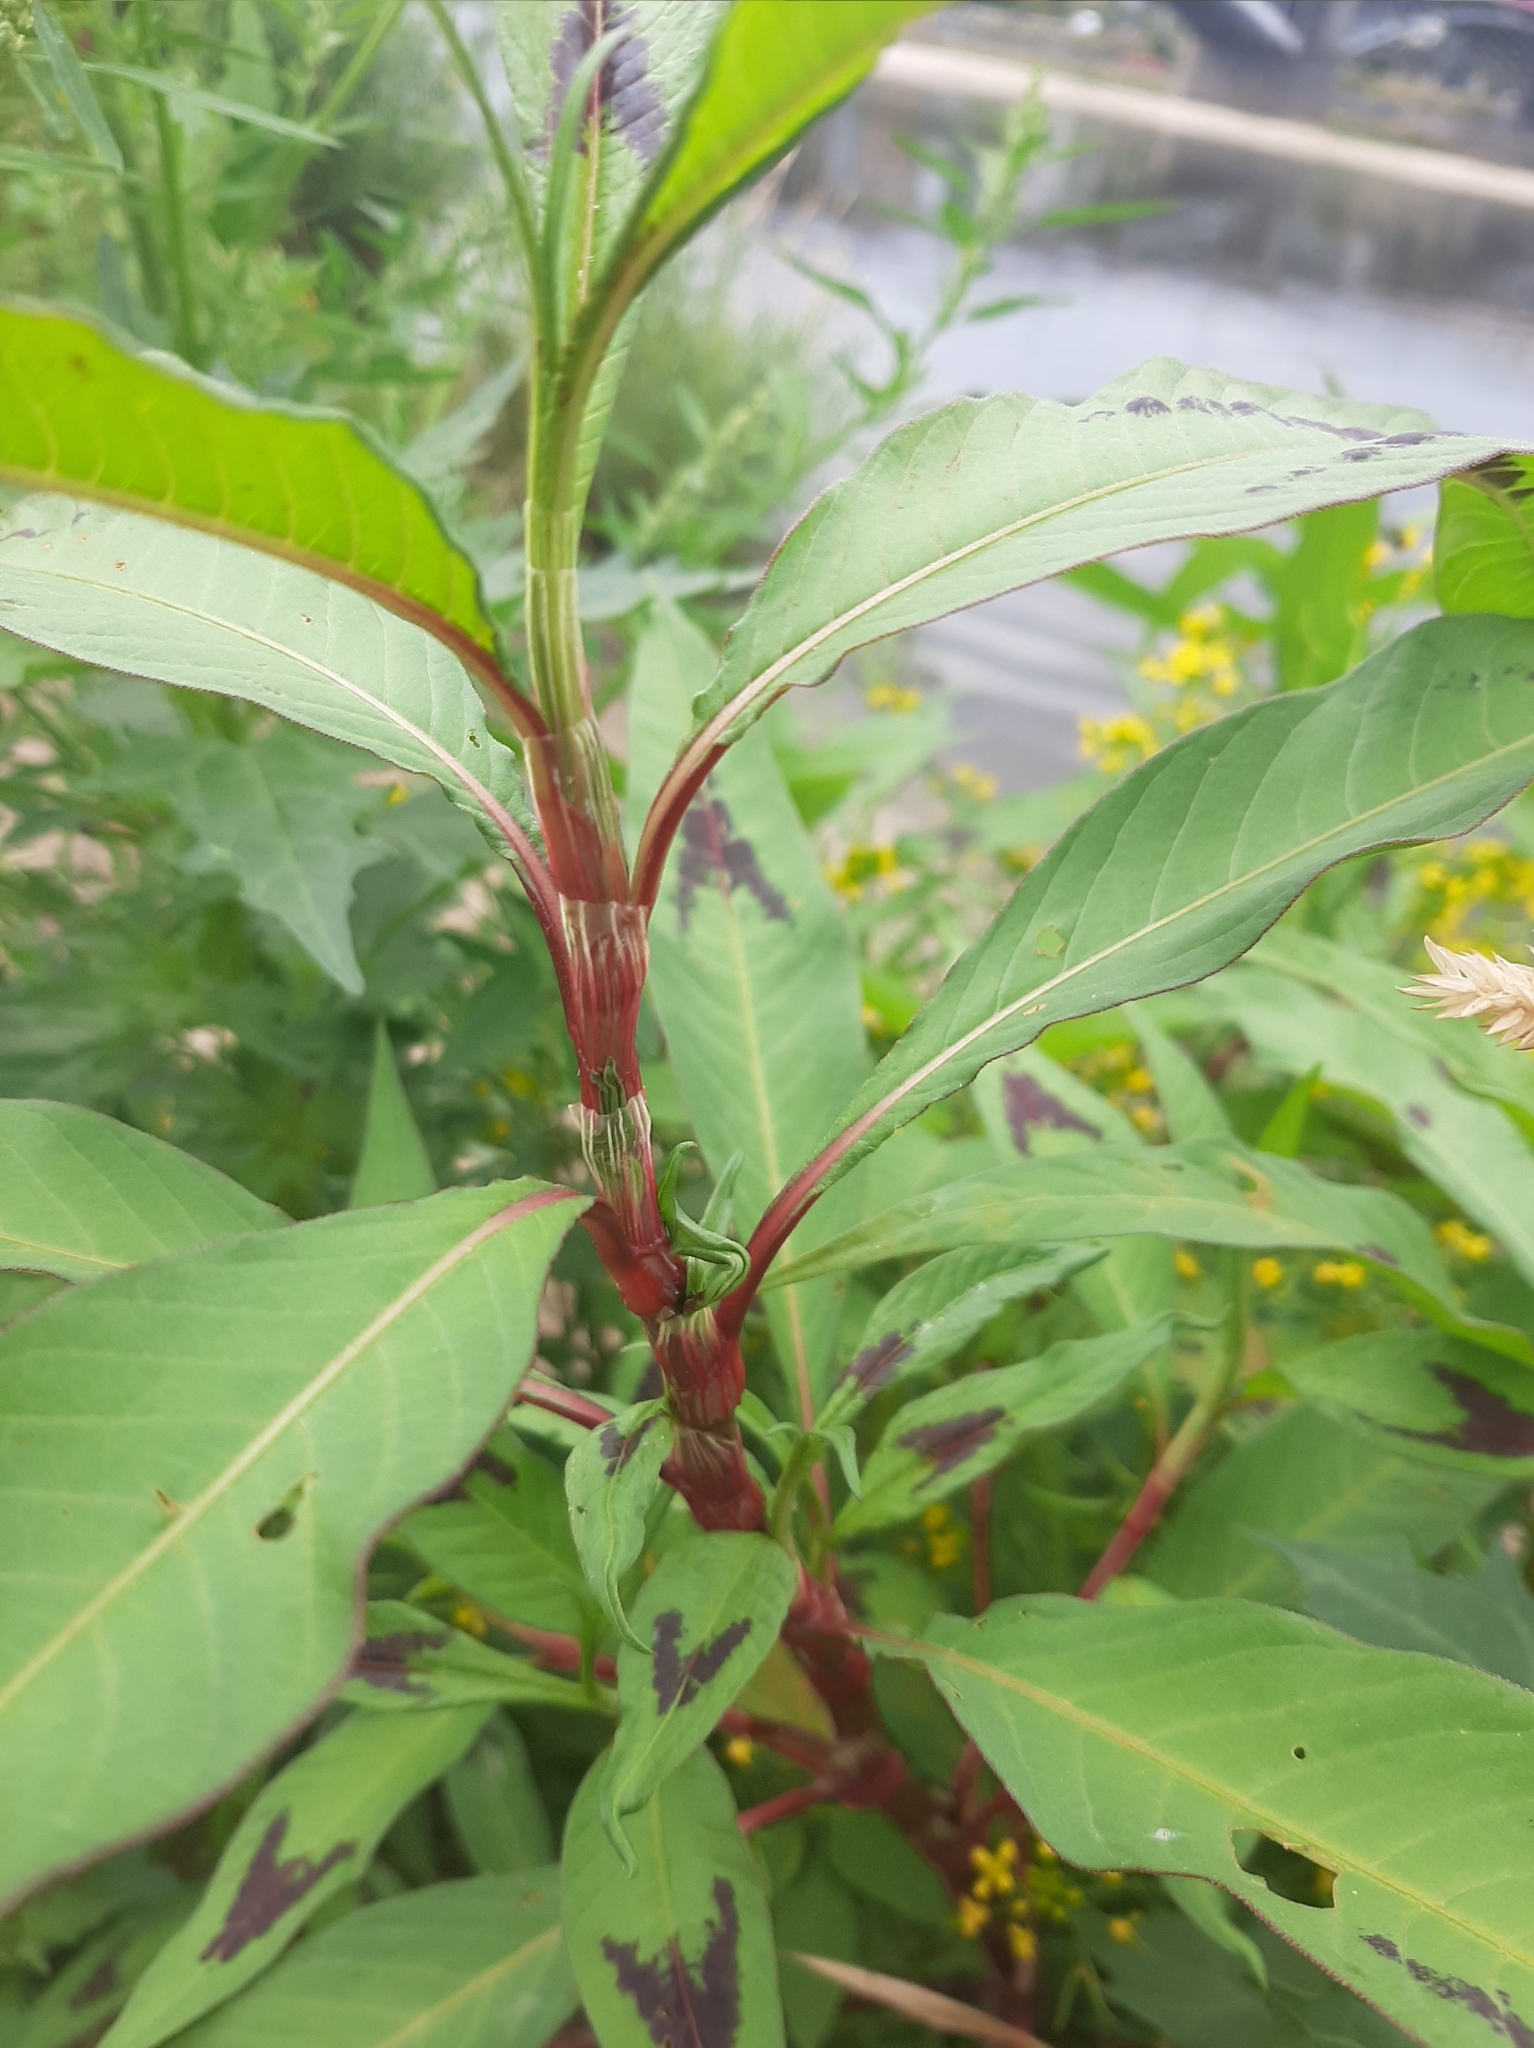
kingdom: Plantae
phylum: Tracheophyta
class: Magnoliopsida
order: Caryophyllales
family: Polygonaceae
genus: Persicaria
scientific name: Persicaria maculosa
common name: Redshank
